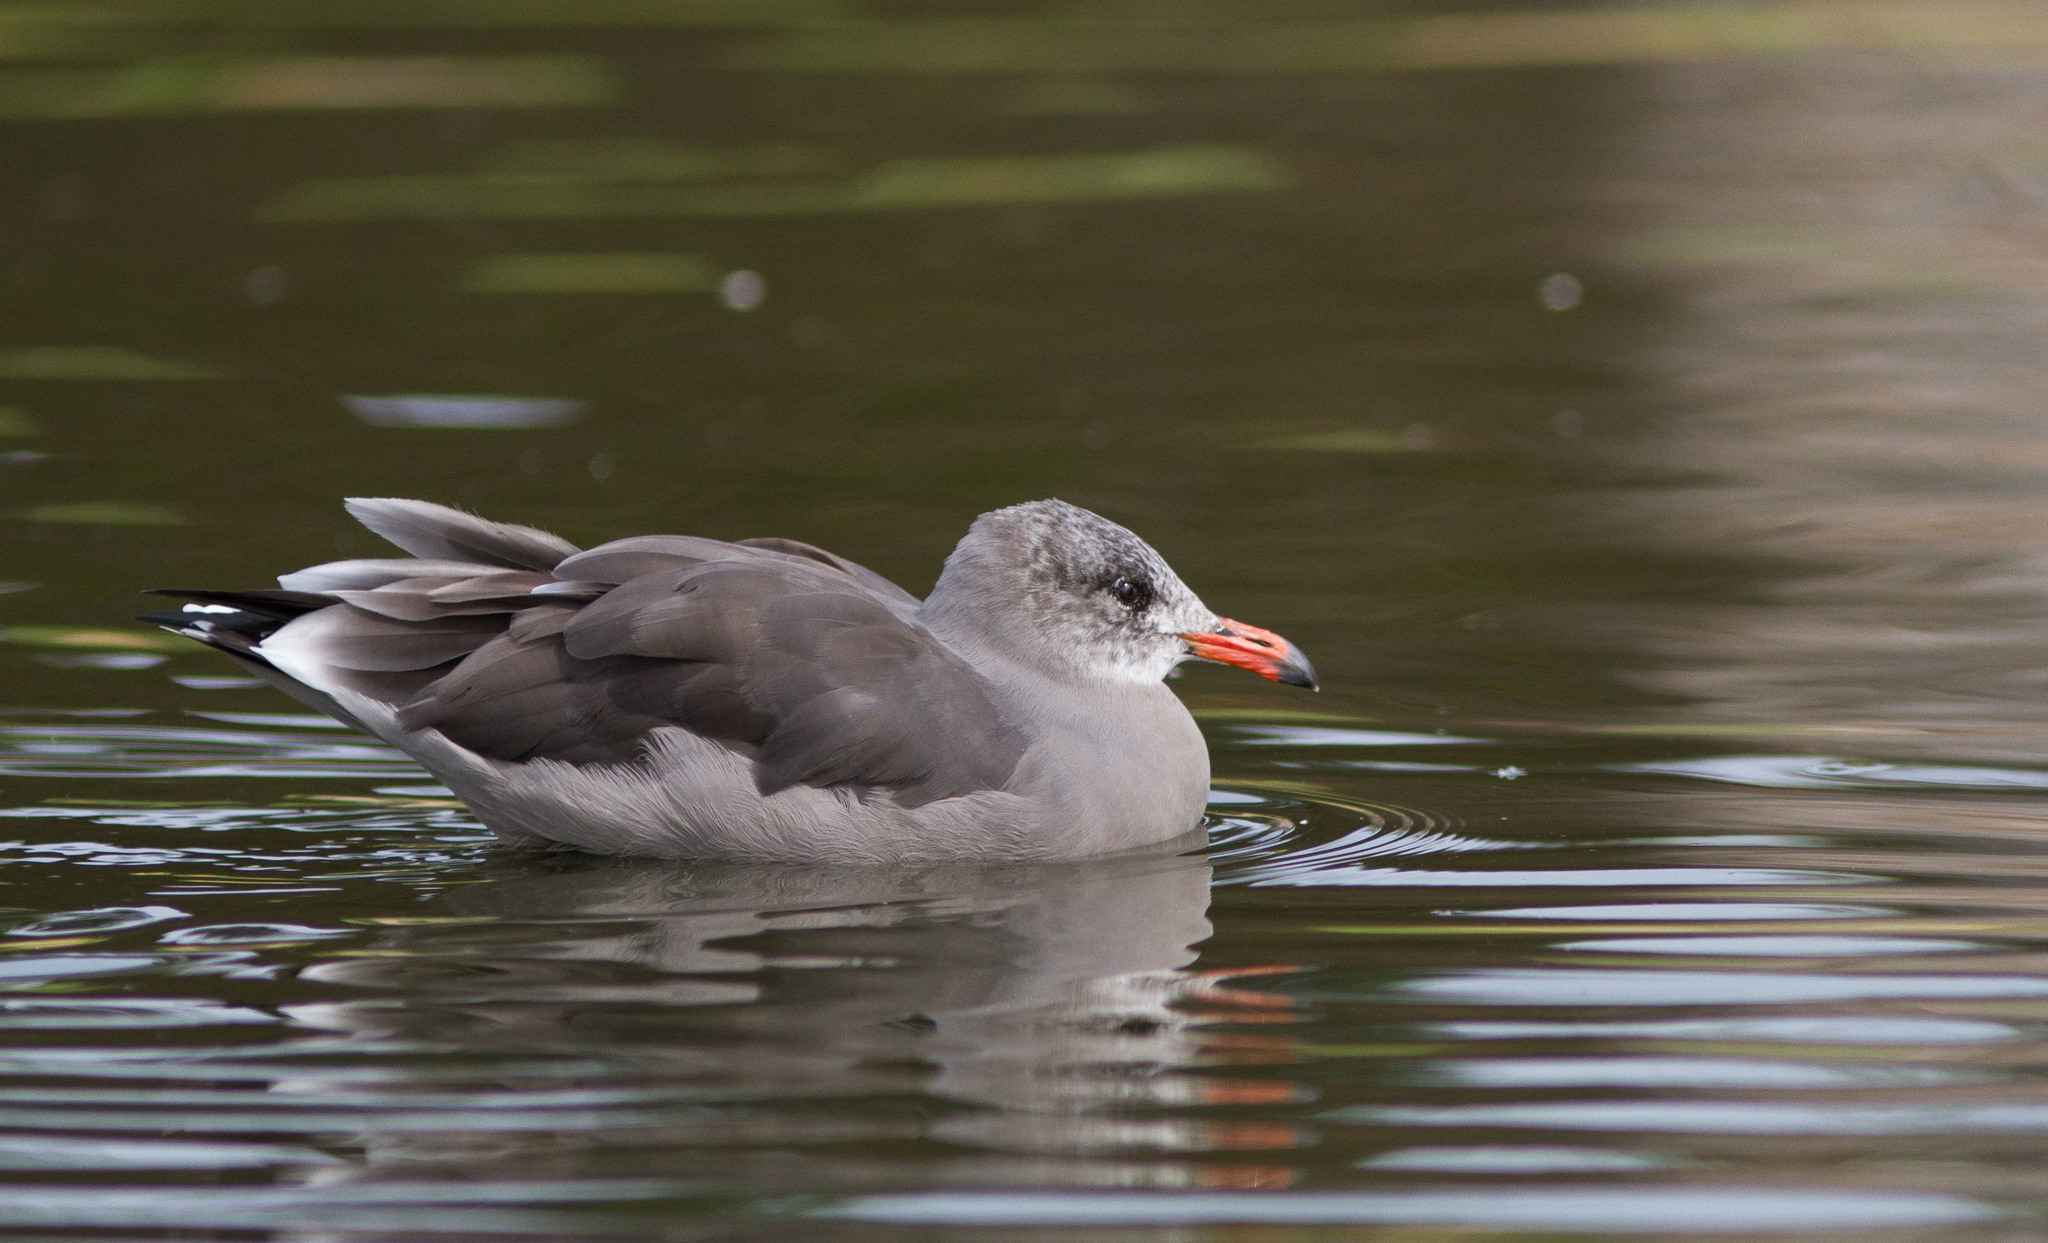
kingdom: Animalia
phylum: Chordata
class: Aves
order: Charadriiformes
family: Laridae
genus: Larus
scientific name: Larus heermanni
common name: Heermann's gull
